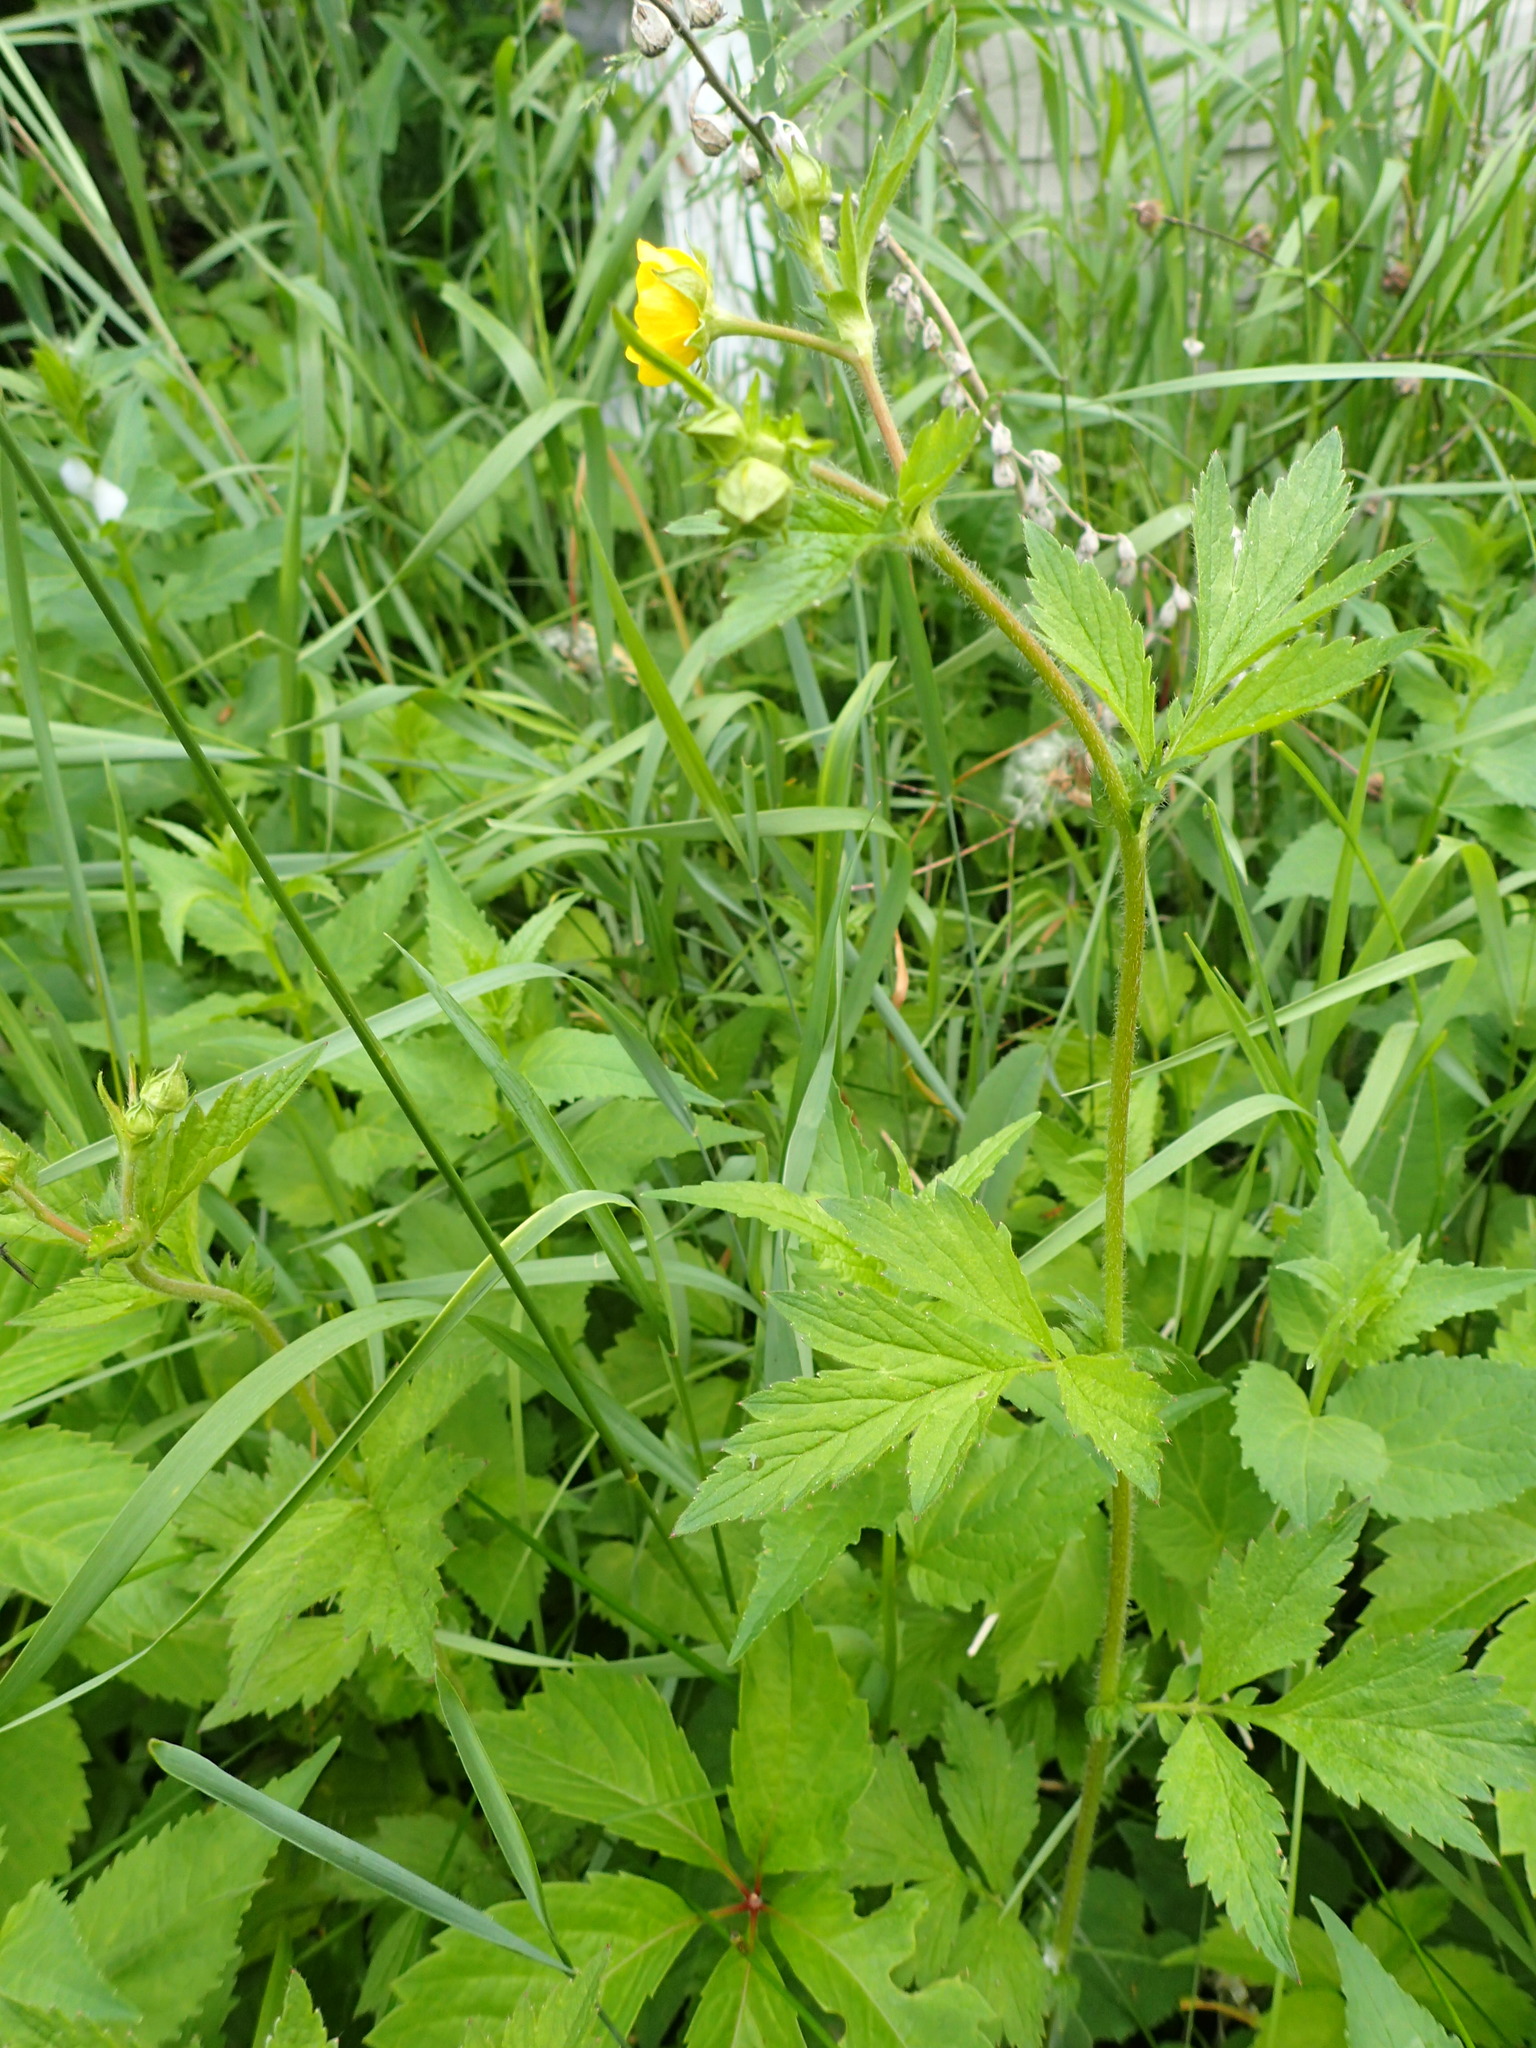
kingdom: Plantae
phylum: Tracheophyta
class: Magnoliopsida
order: Rosales
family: Rosaceae
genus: Geum
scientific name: Geum aleppicum
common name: Yellow avens
